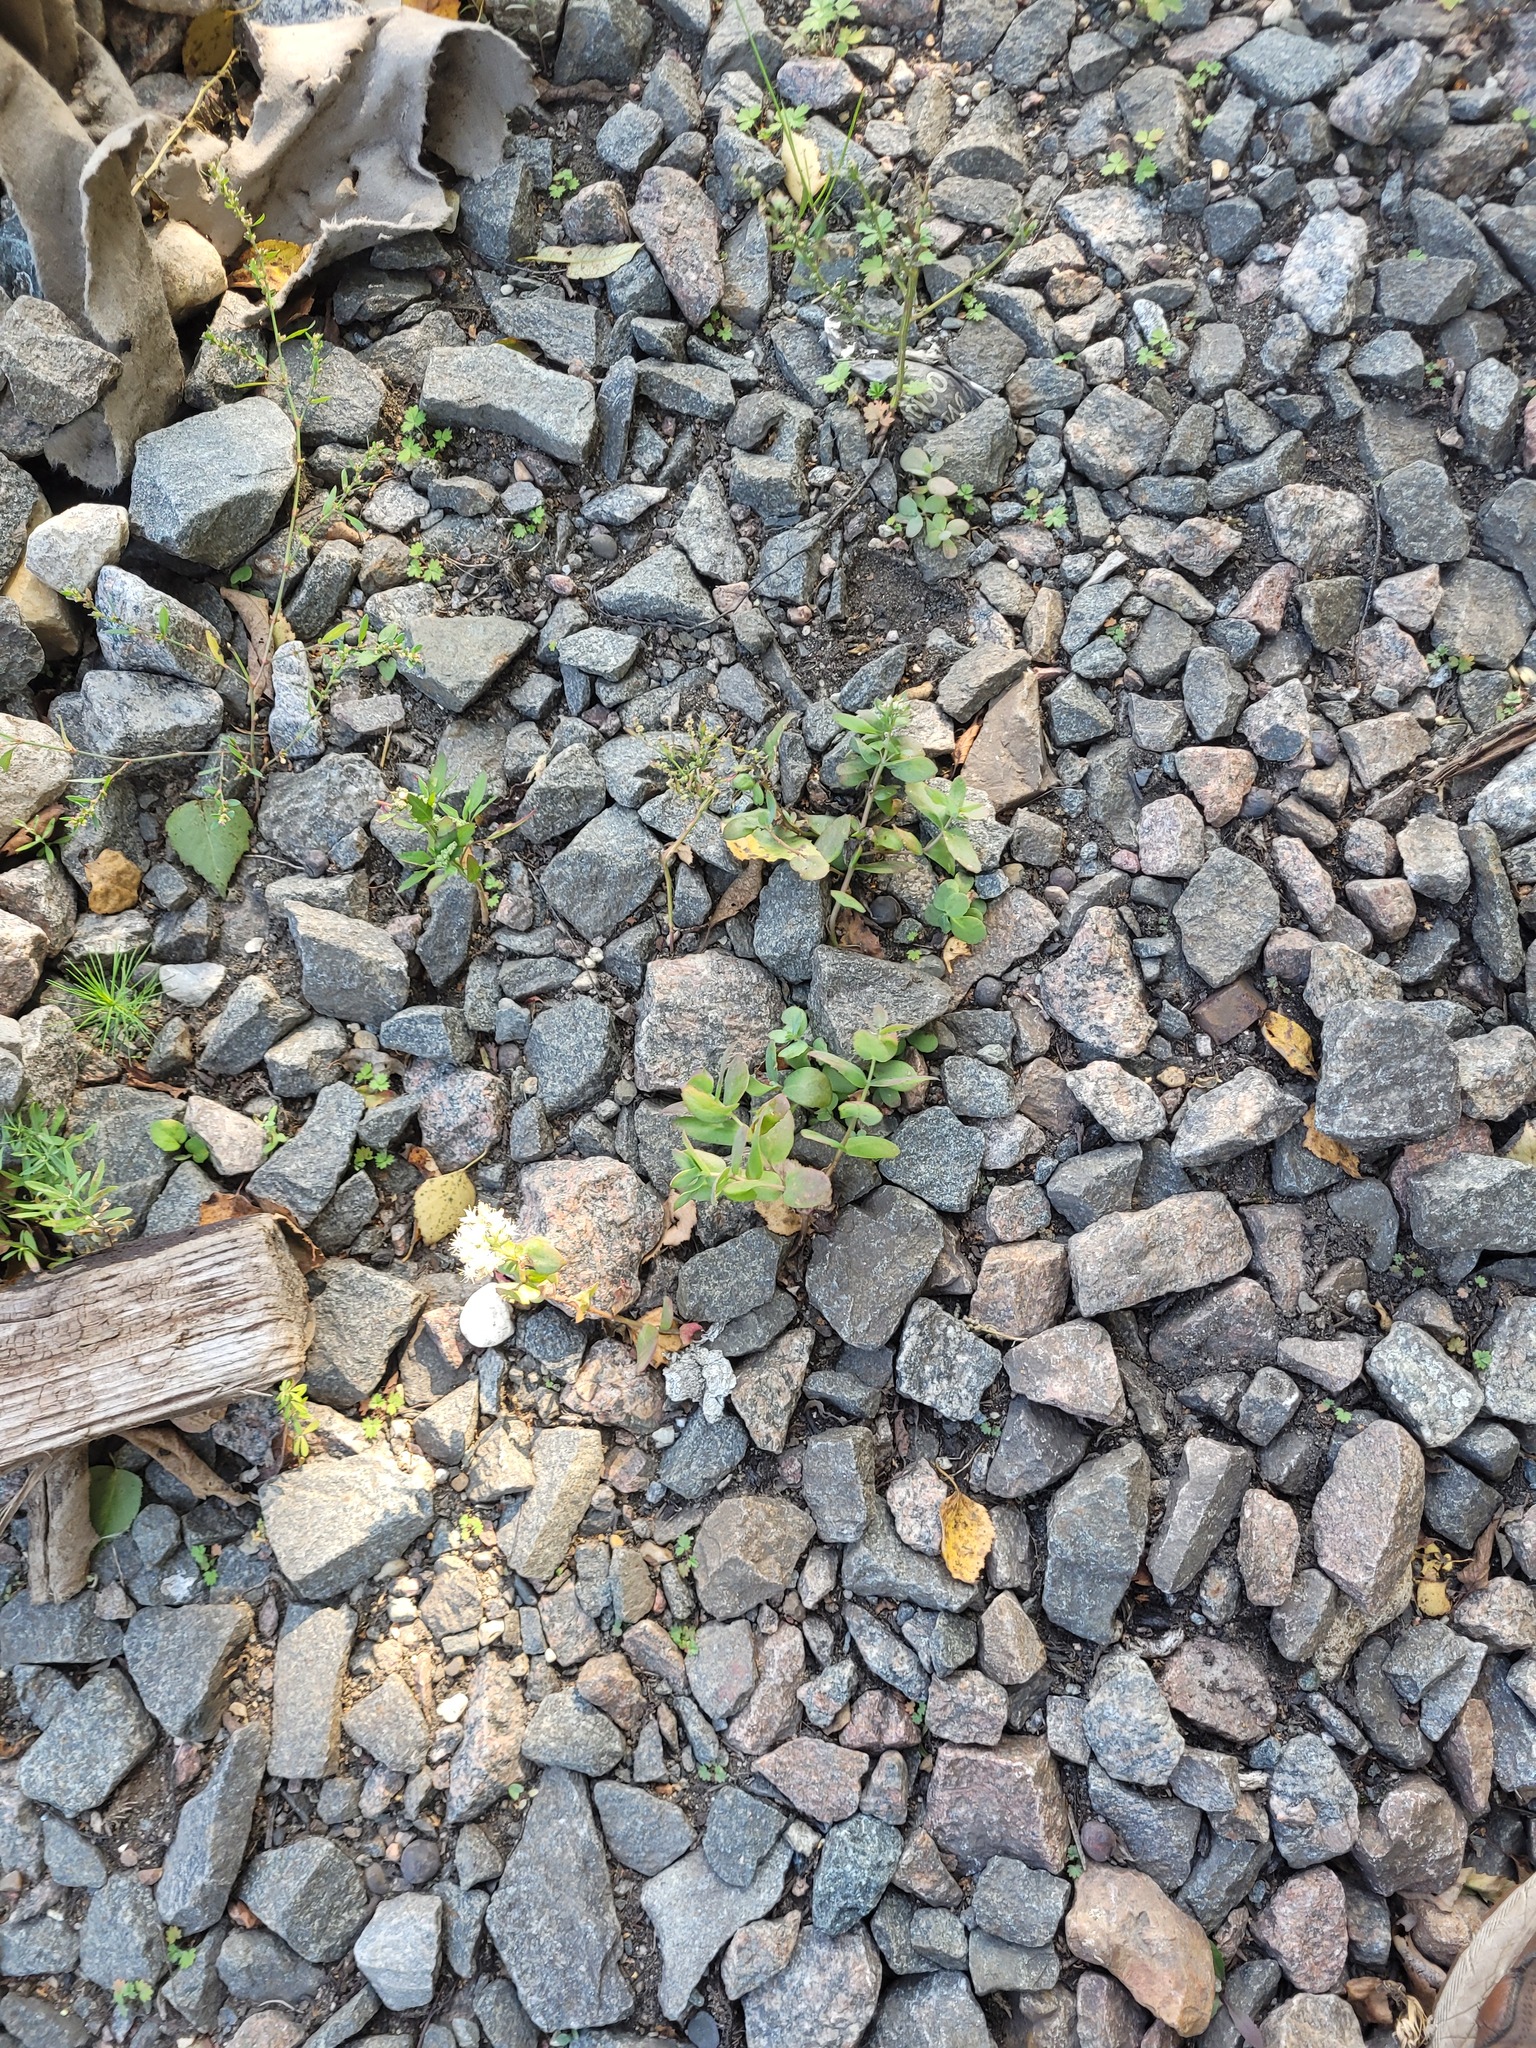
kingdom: Plantae
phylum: Tracheophyta
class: Magnoliopsida
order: Saxifragales
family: Crassulaceae
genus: Hylotelephium
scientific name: Hylotelephium maximum
